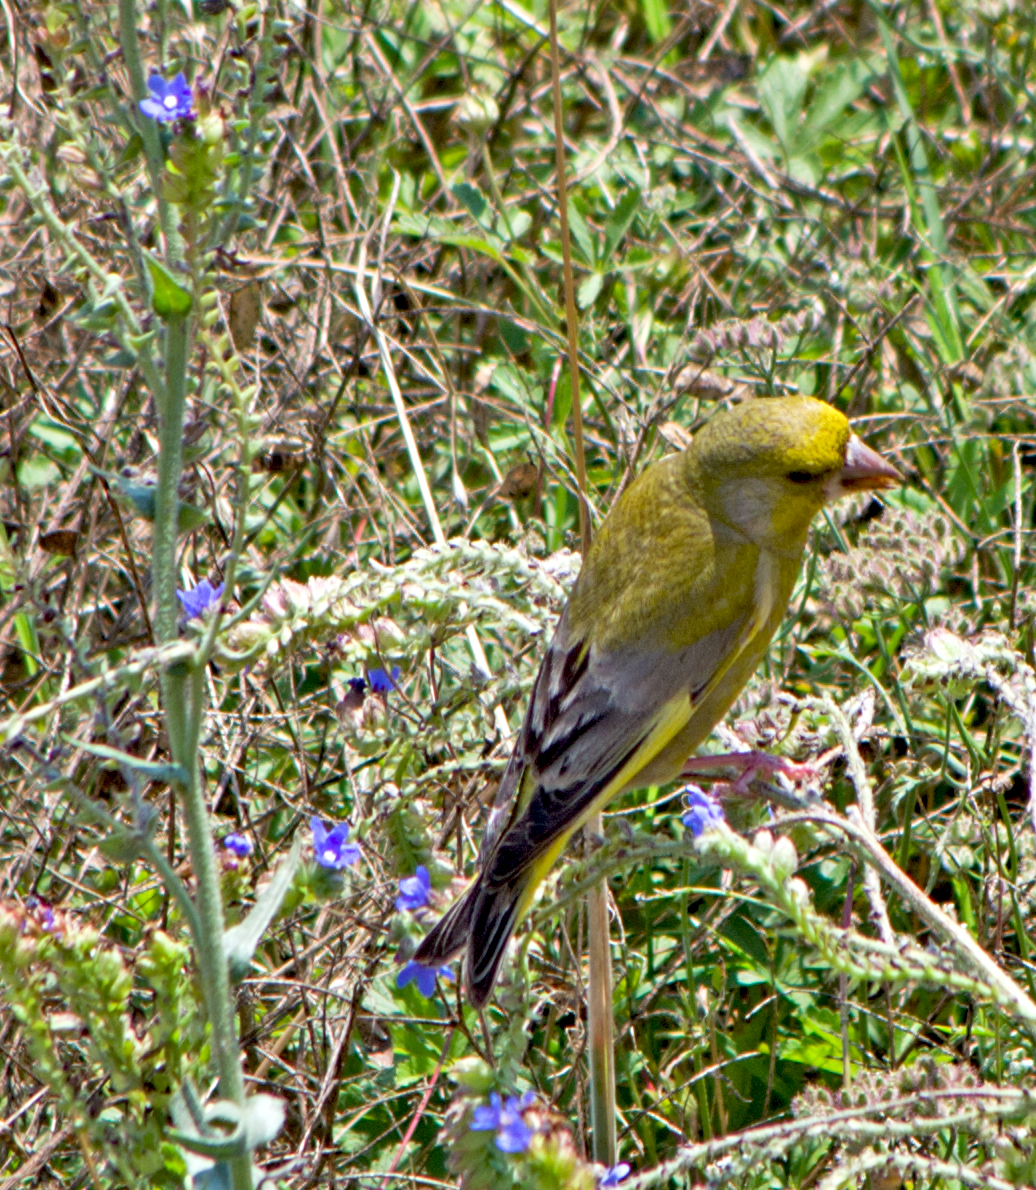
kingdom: Plantae
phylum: Tracheophyta
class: Liliopsida
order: Poales
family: Poaceae
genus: Chloris
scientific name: Chloris chloris
